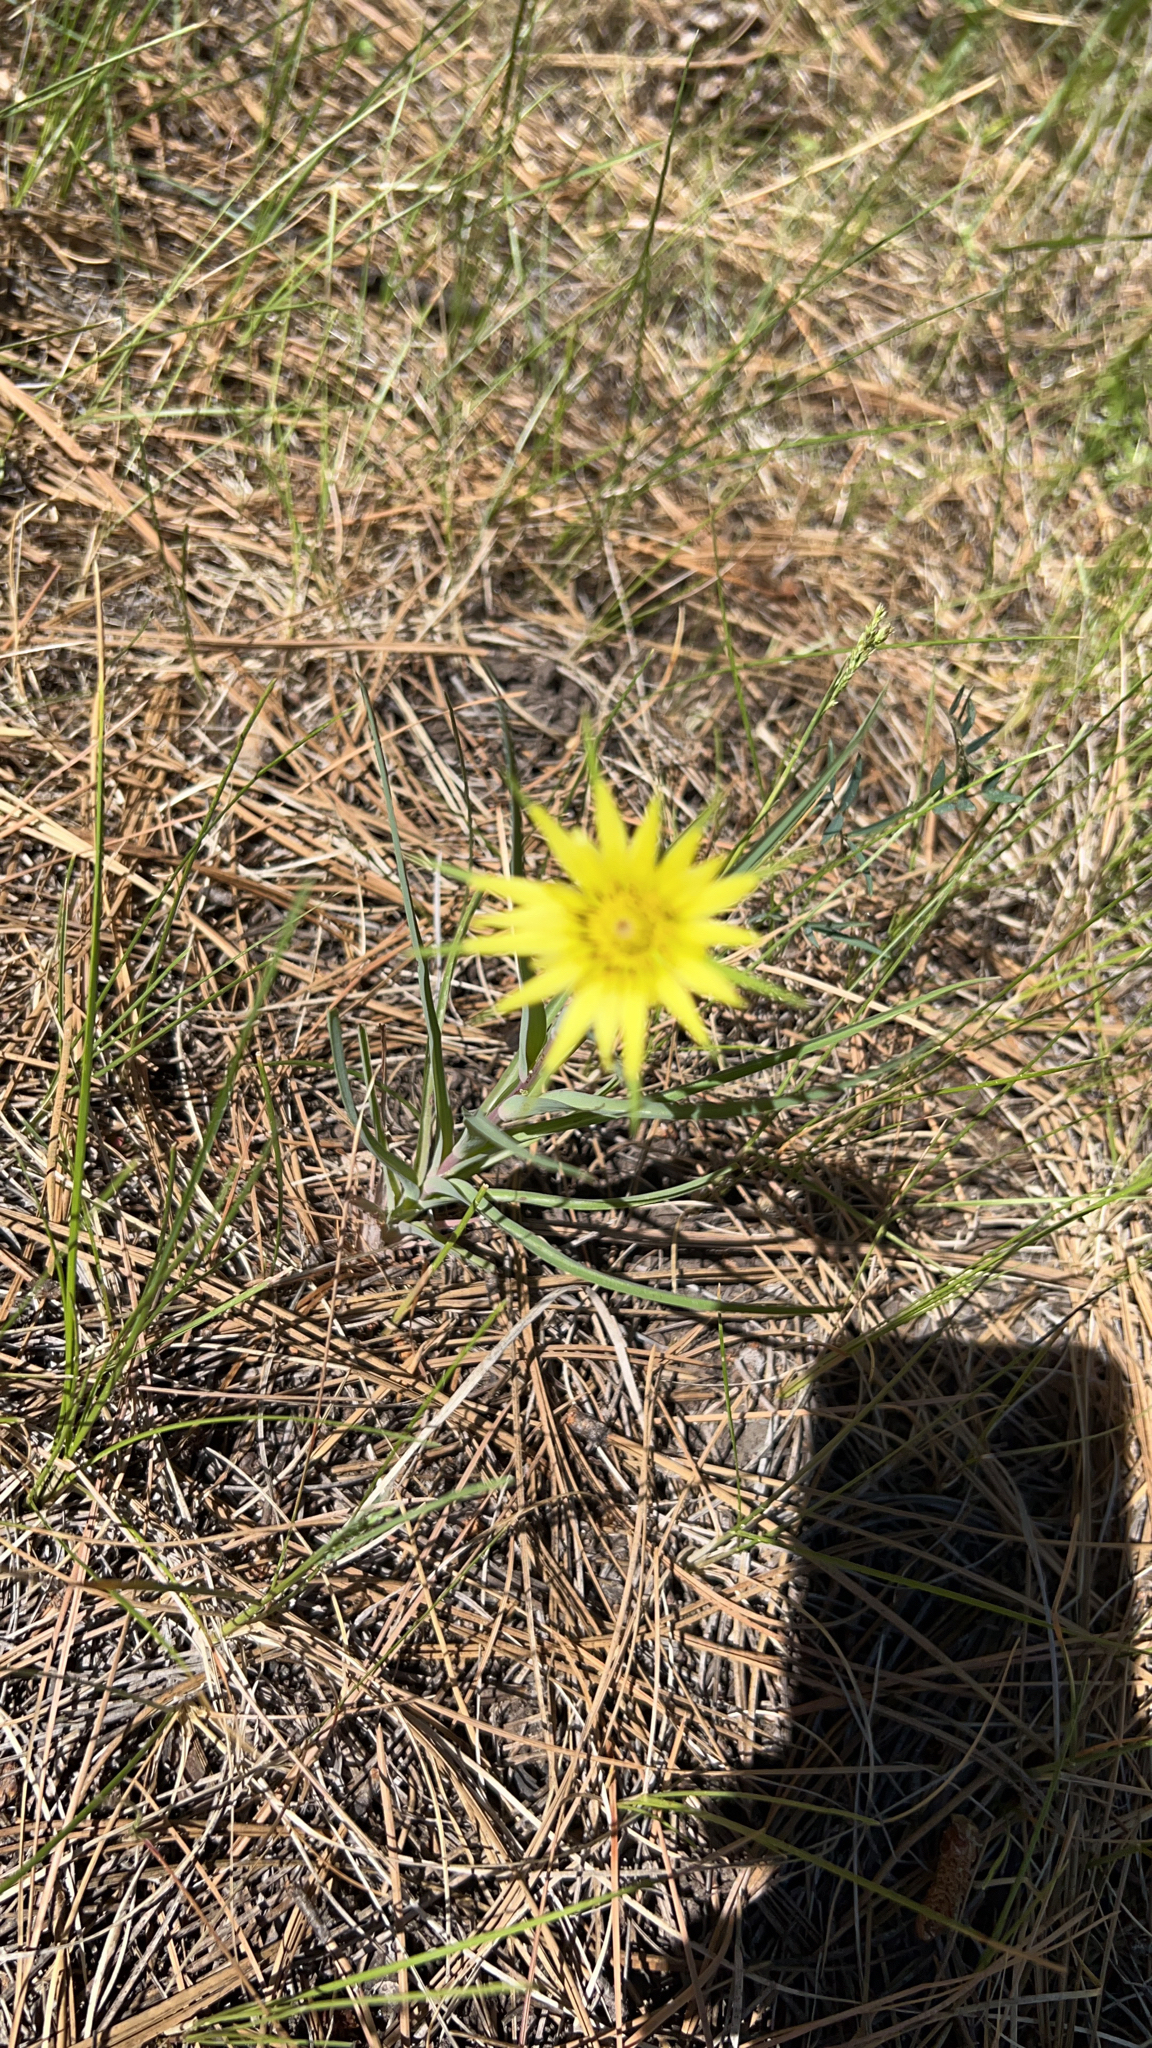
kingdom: Plantae
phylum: Tracheophyta
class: Magnoliopsida
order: Asterales
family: Asteraceae
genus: Tragopogon
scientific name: Tragopogon dubius
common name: Yellow salsify
